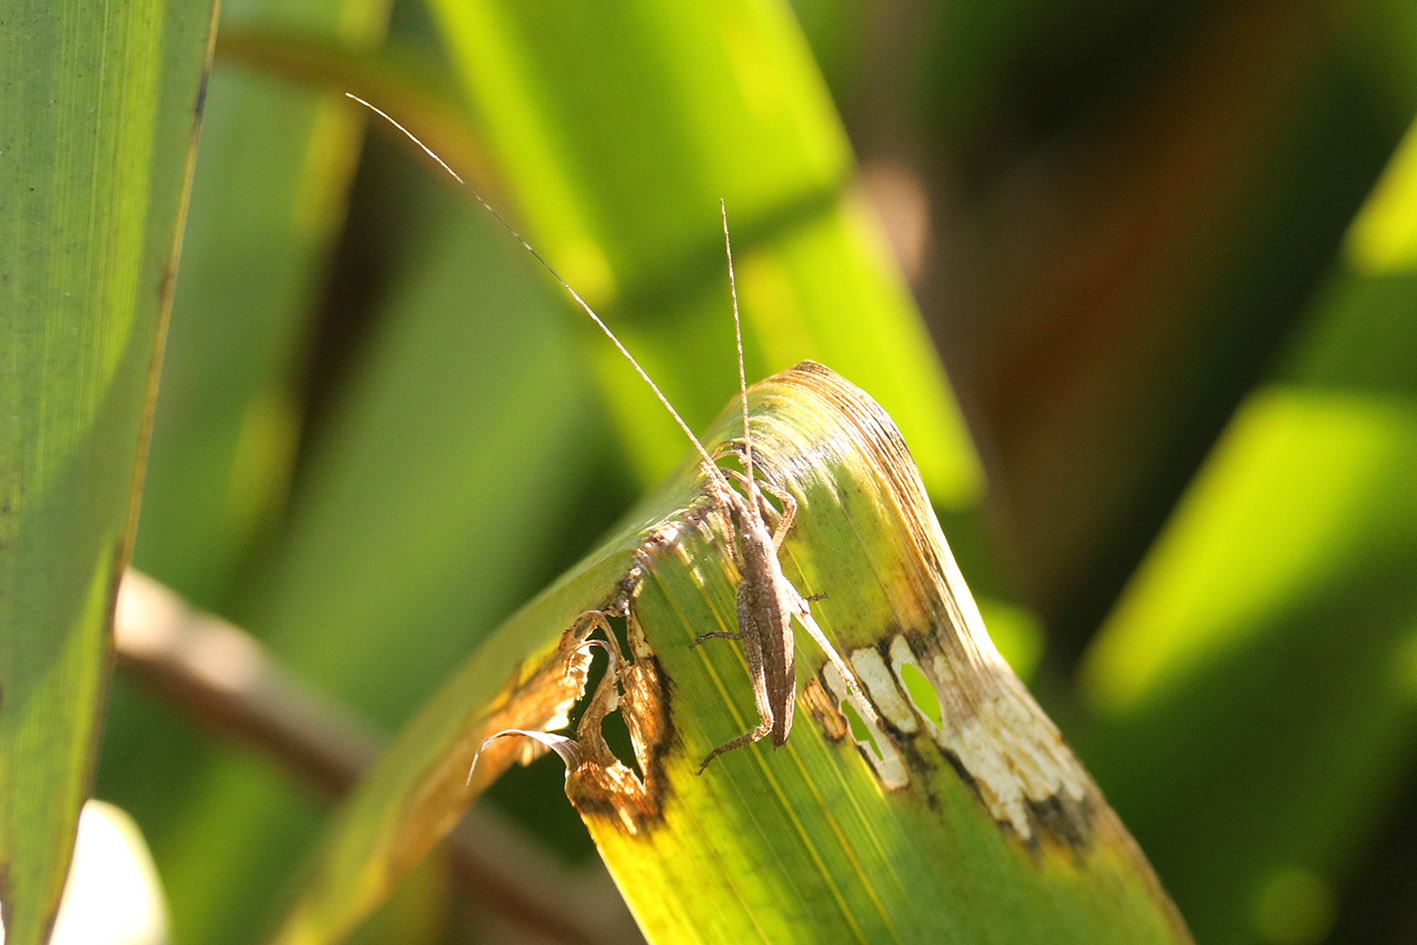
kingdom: Animalia
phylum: Arthropoda
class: Insecta
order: Orthoptera
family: Tettigoniidae
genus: Dasyscelus
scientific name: Dasyscelus normalis
